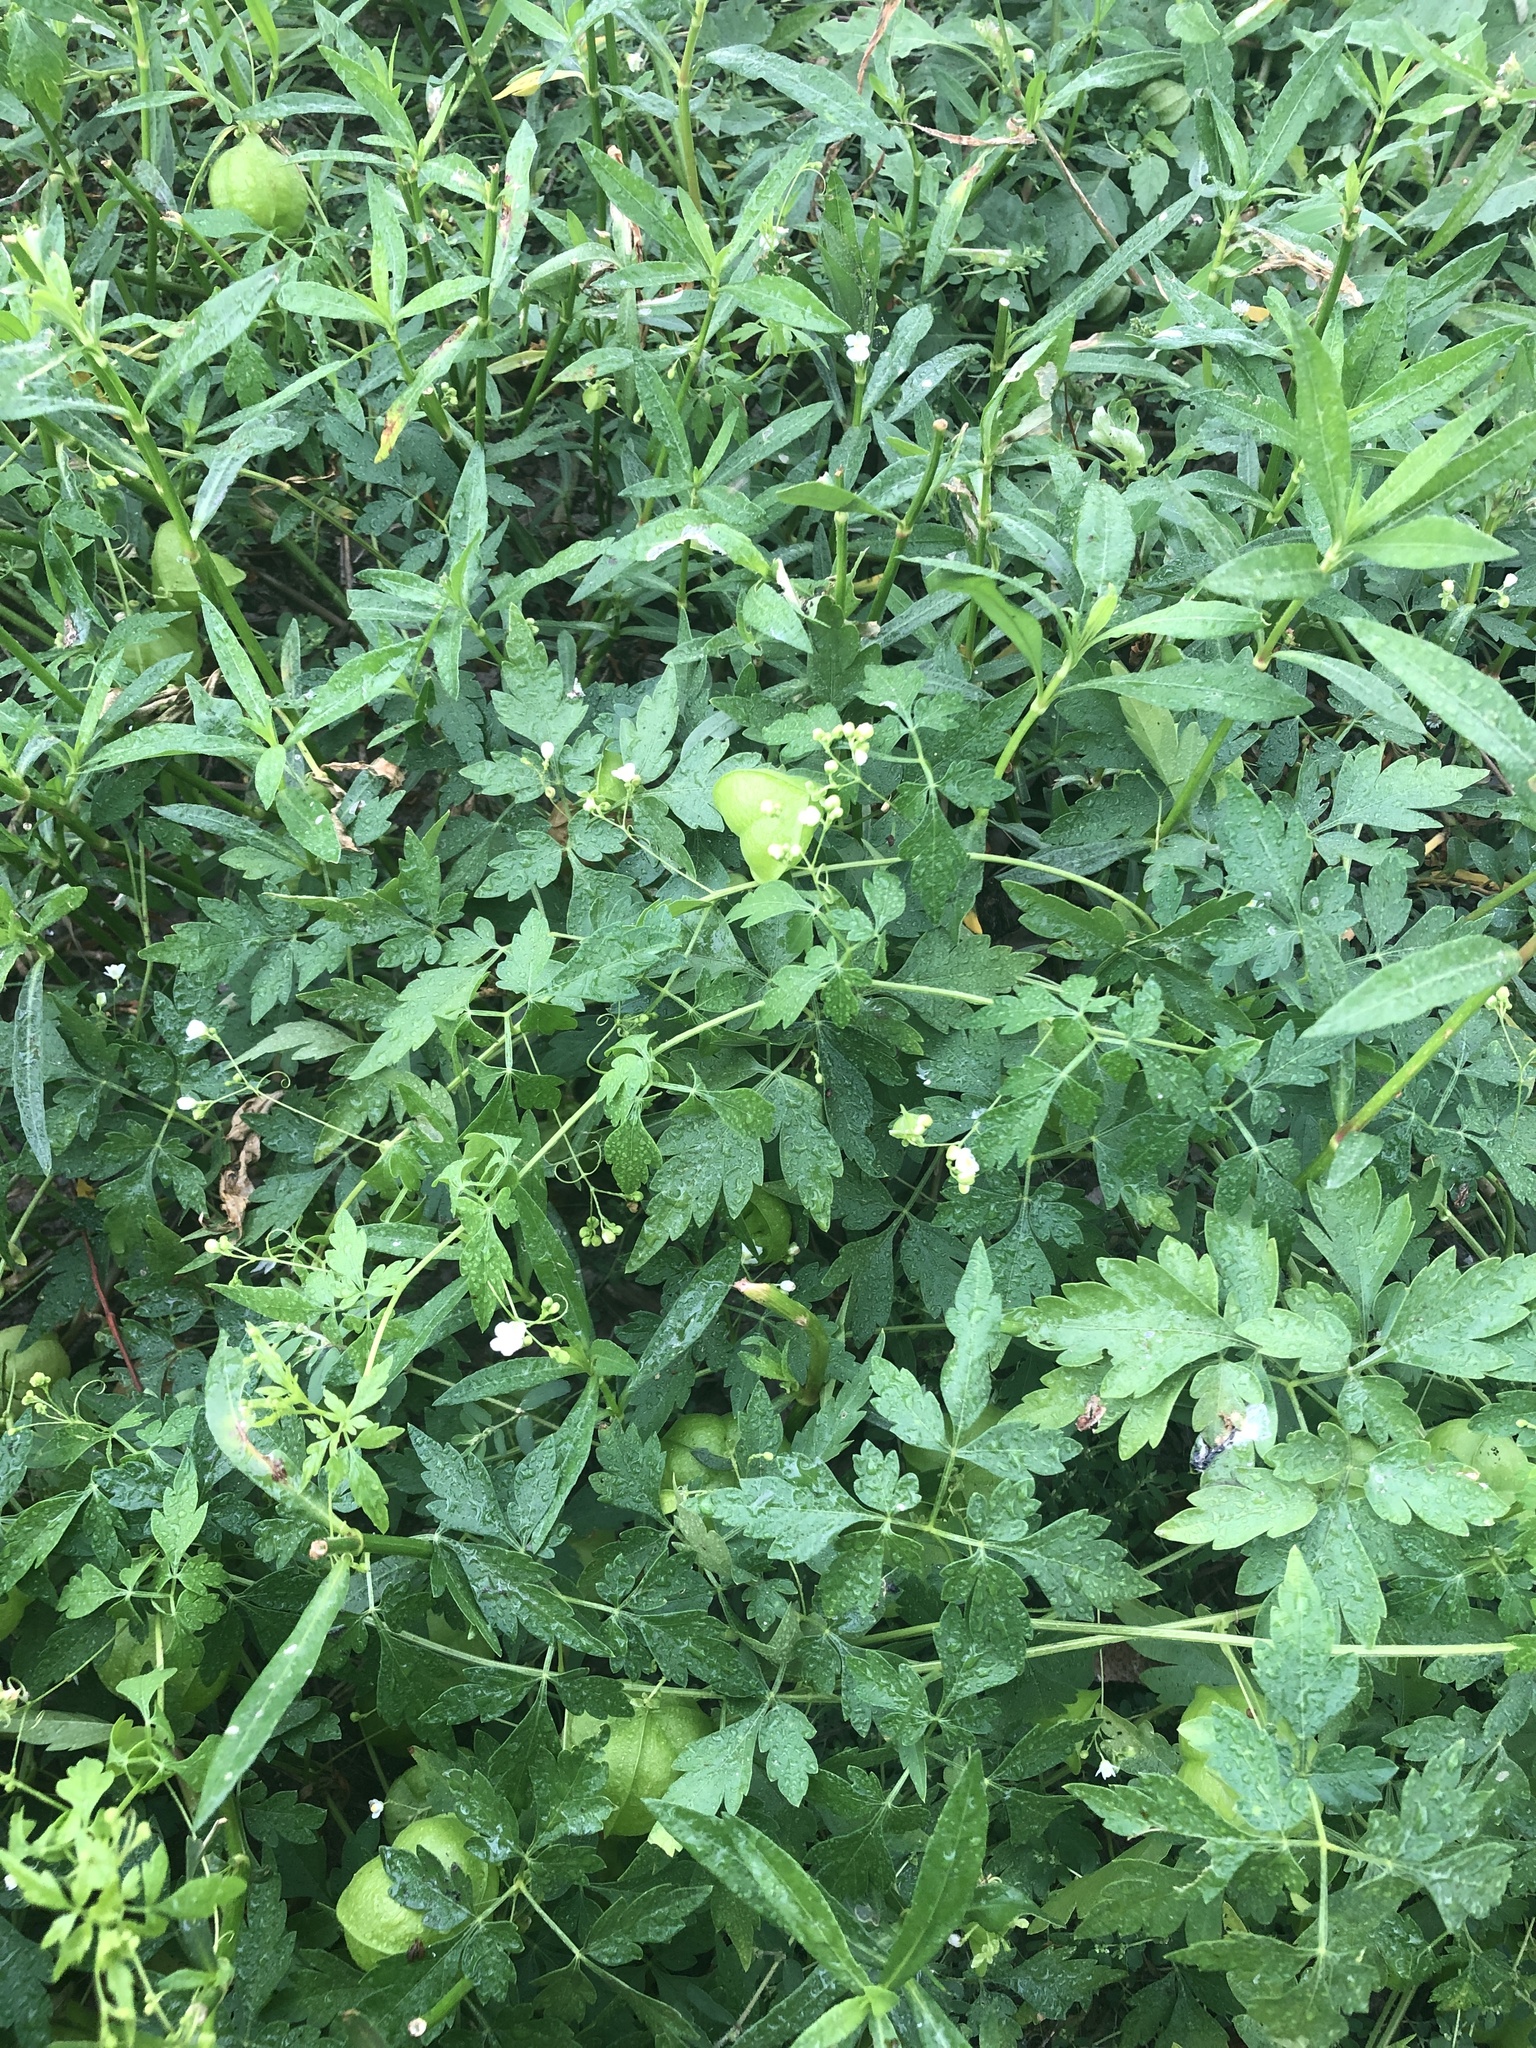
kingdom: Plantae
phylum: Tracheophyta
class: Magnoliopsida
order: Sapindales
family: Sapindaceae
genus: Cardiospermum
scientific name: Cardiospermum halicacabum
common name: Balloon vine
